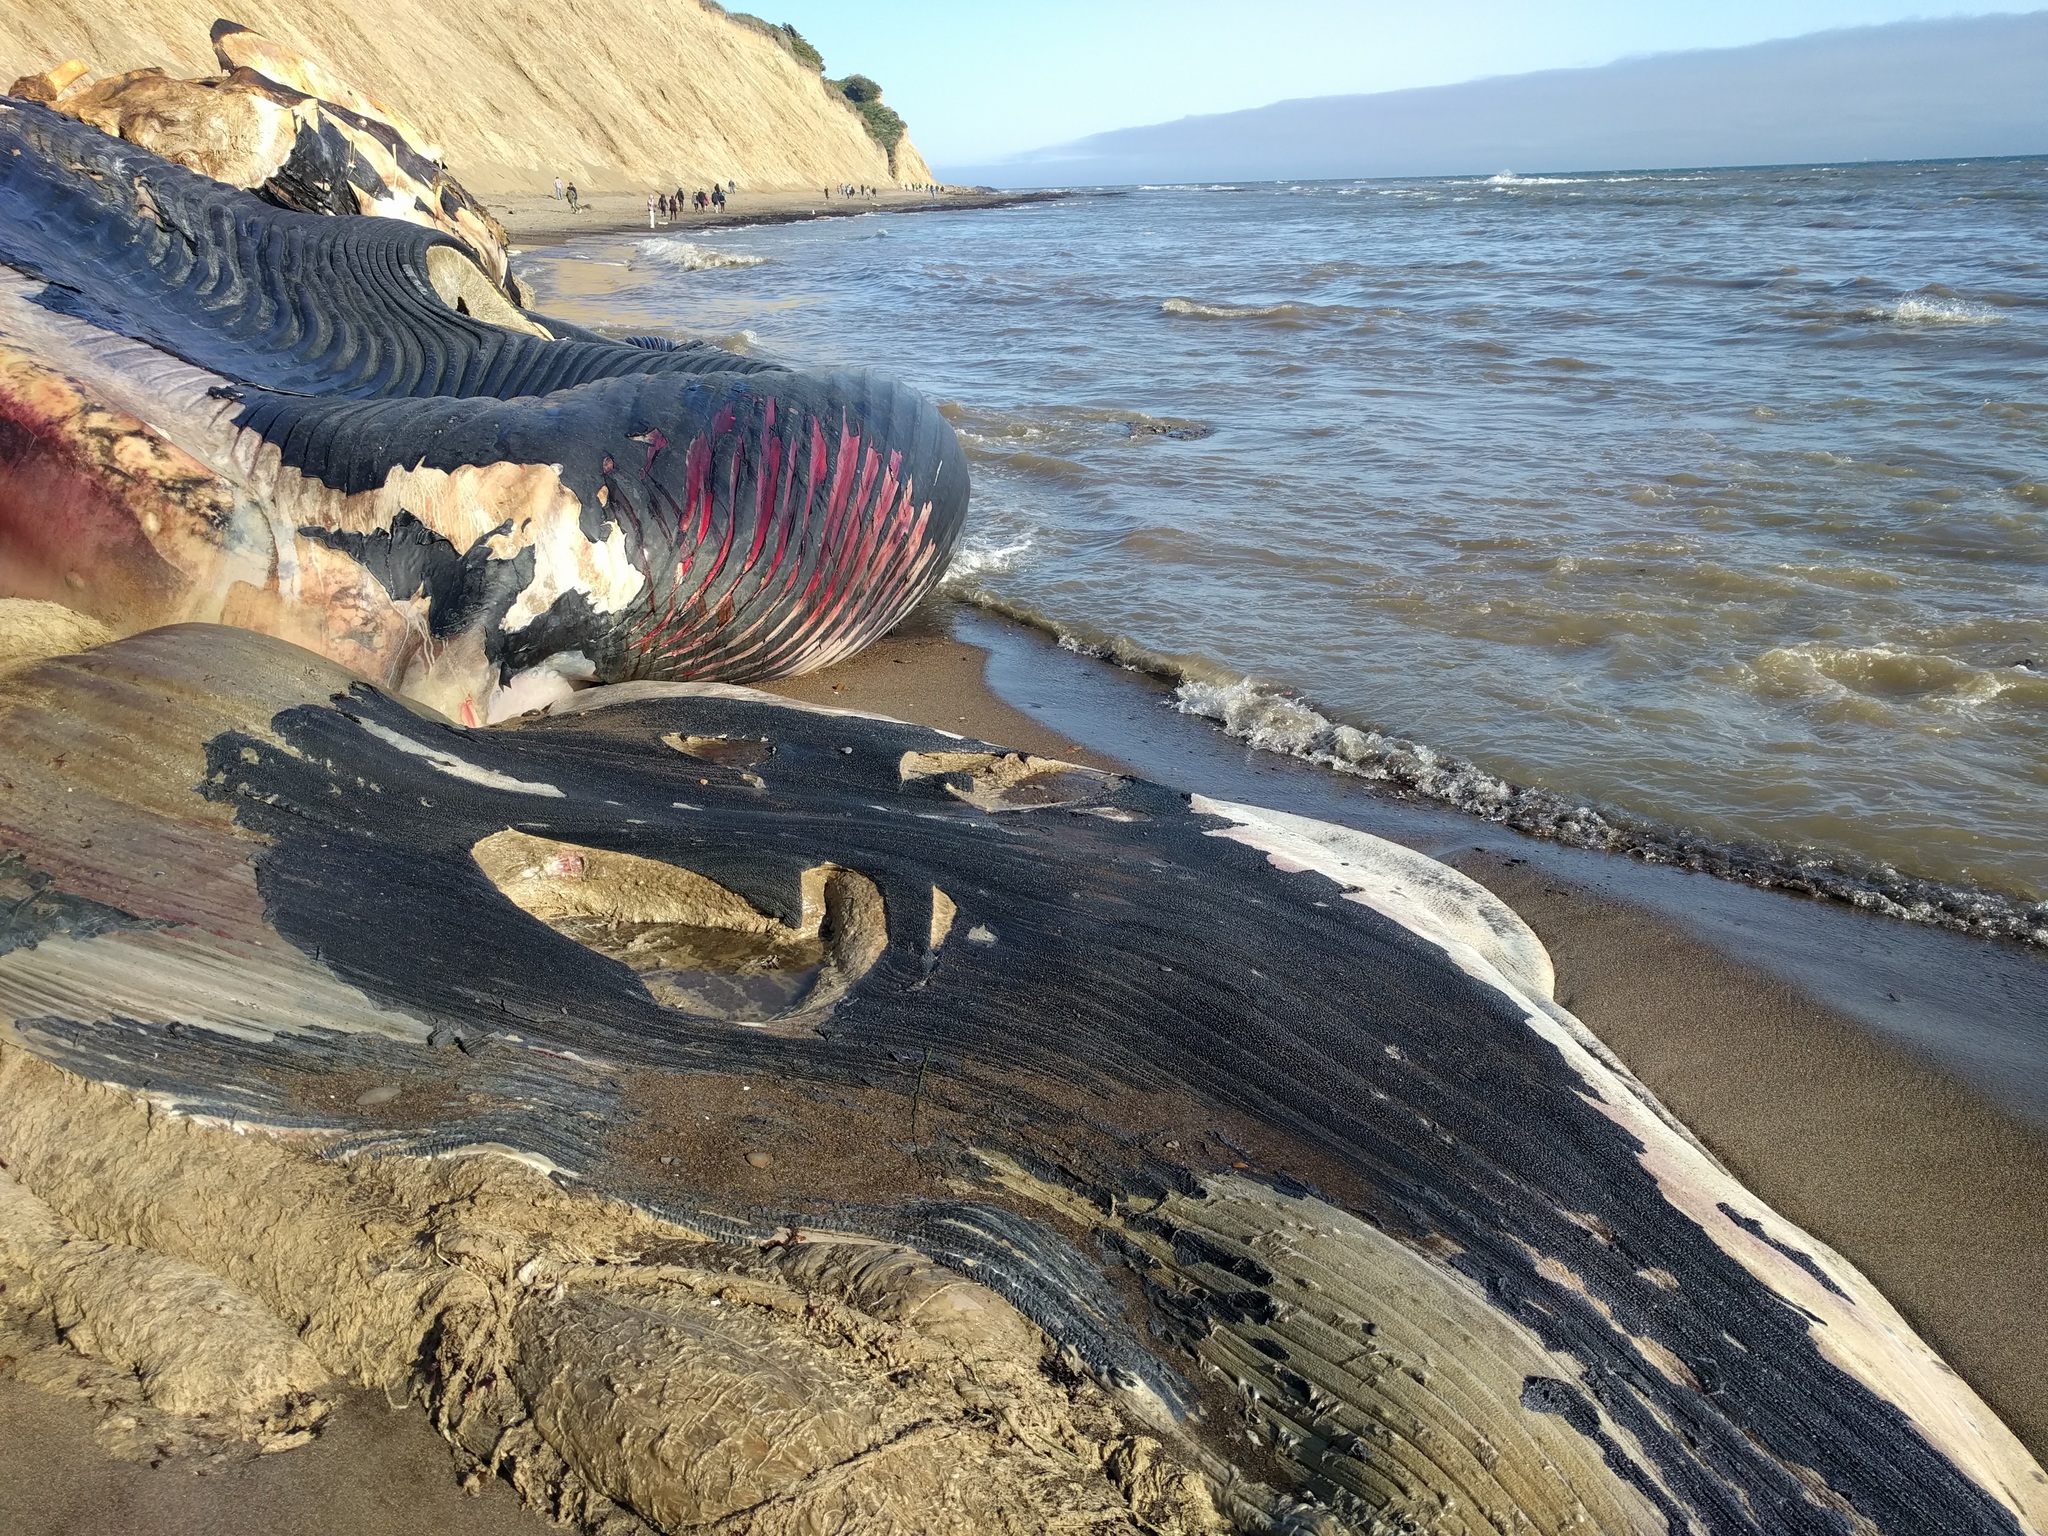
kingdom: Animalia
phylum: Chordata
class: Mammalia
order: Cetacea
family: Balaenopteridae
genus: Balaenoptera
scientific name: Balaenoptera musculus
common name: Blue whale
